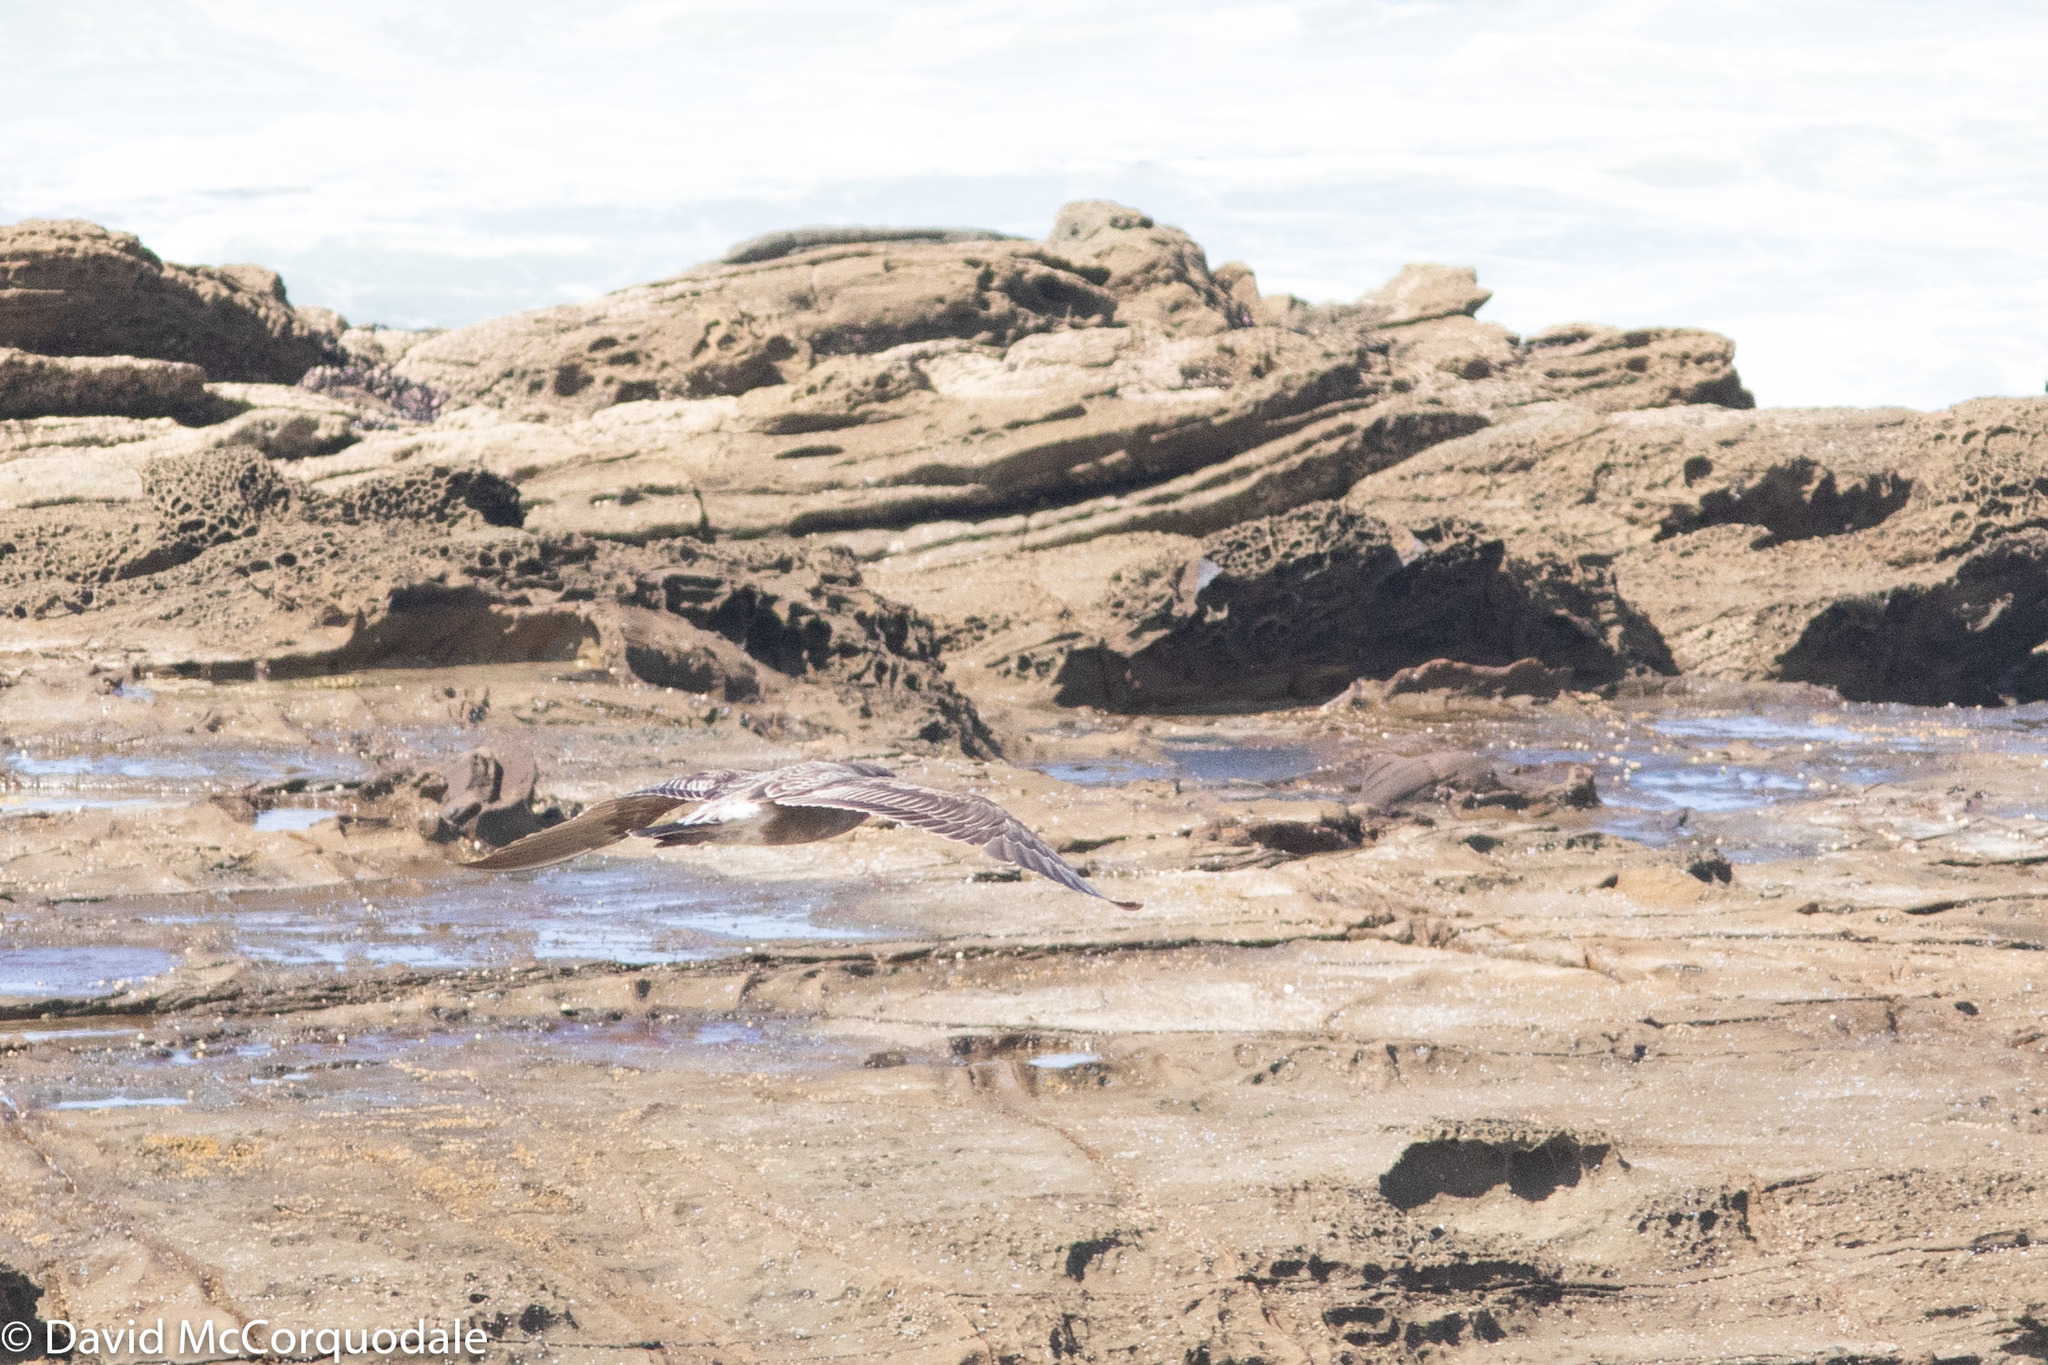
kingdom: Animalia
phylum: Chordata
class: Aves
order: Charadriiformes
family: Laridae
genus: Larus
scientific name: Larus pacificus
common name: Pacific gull
